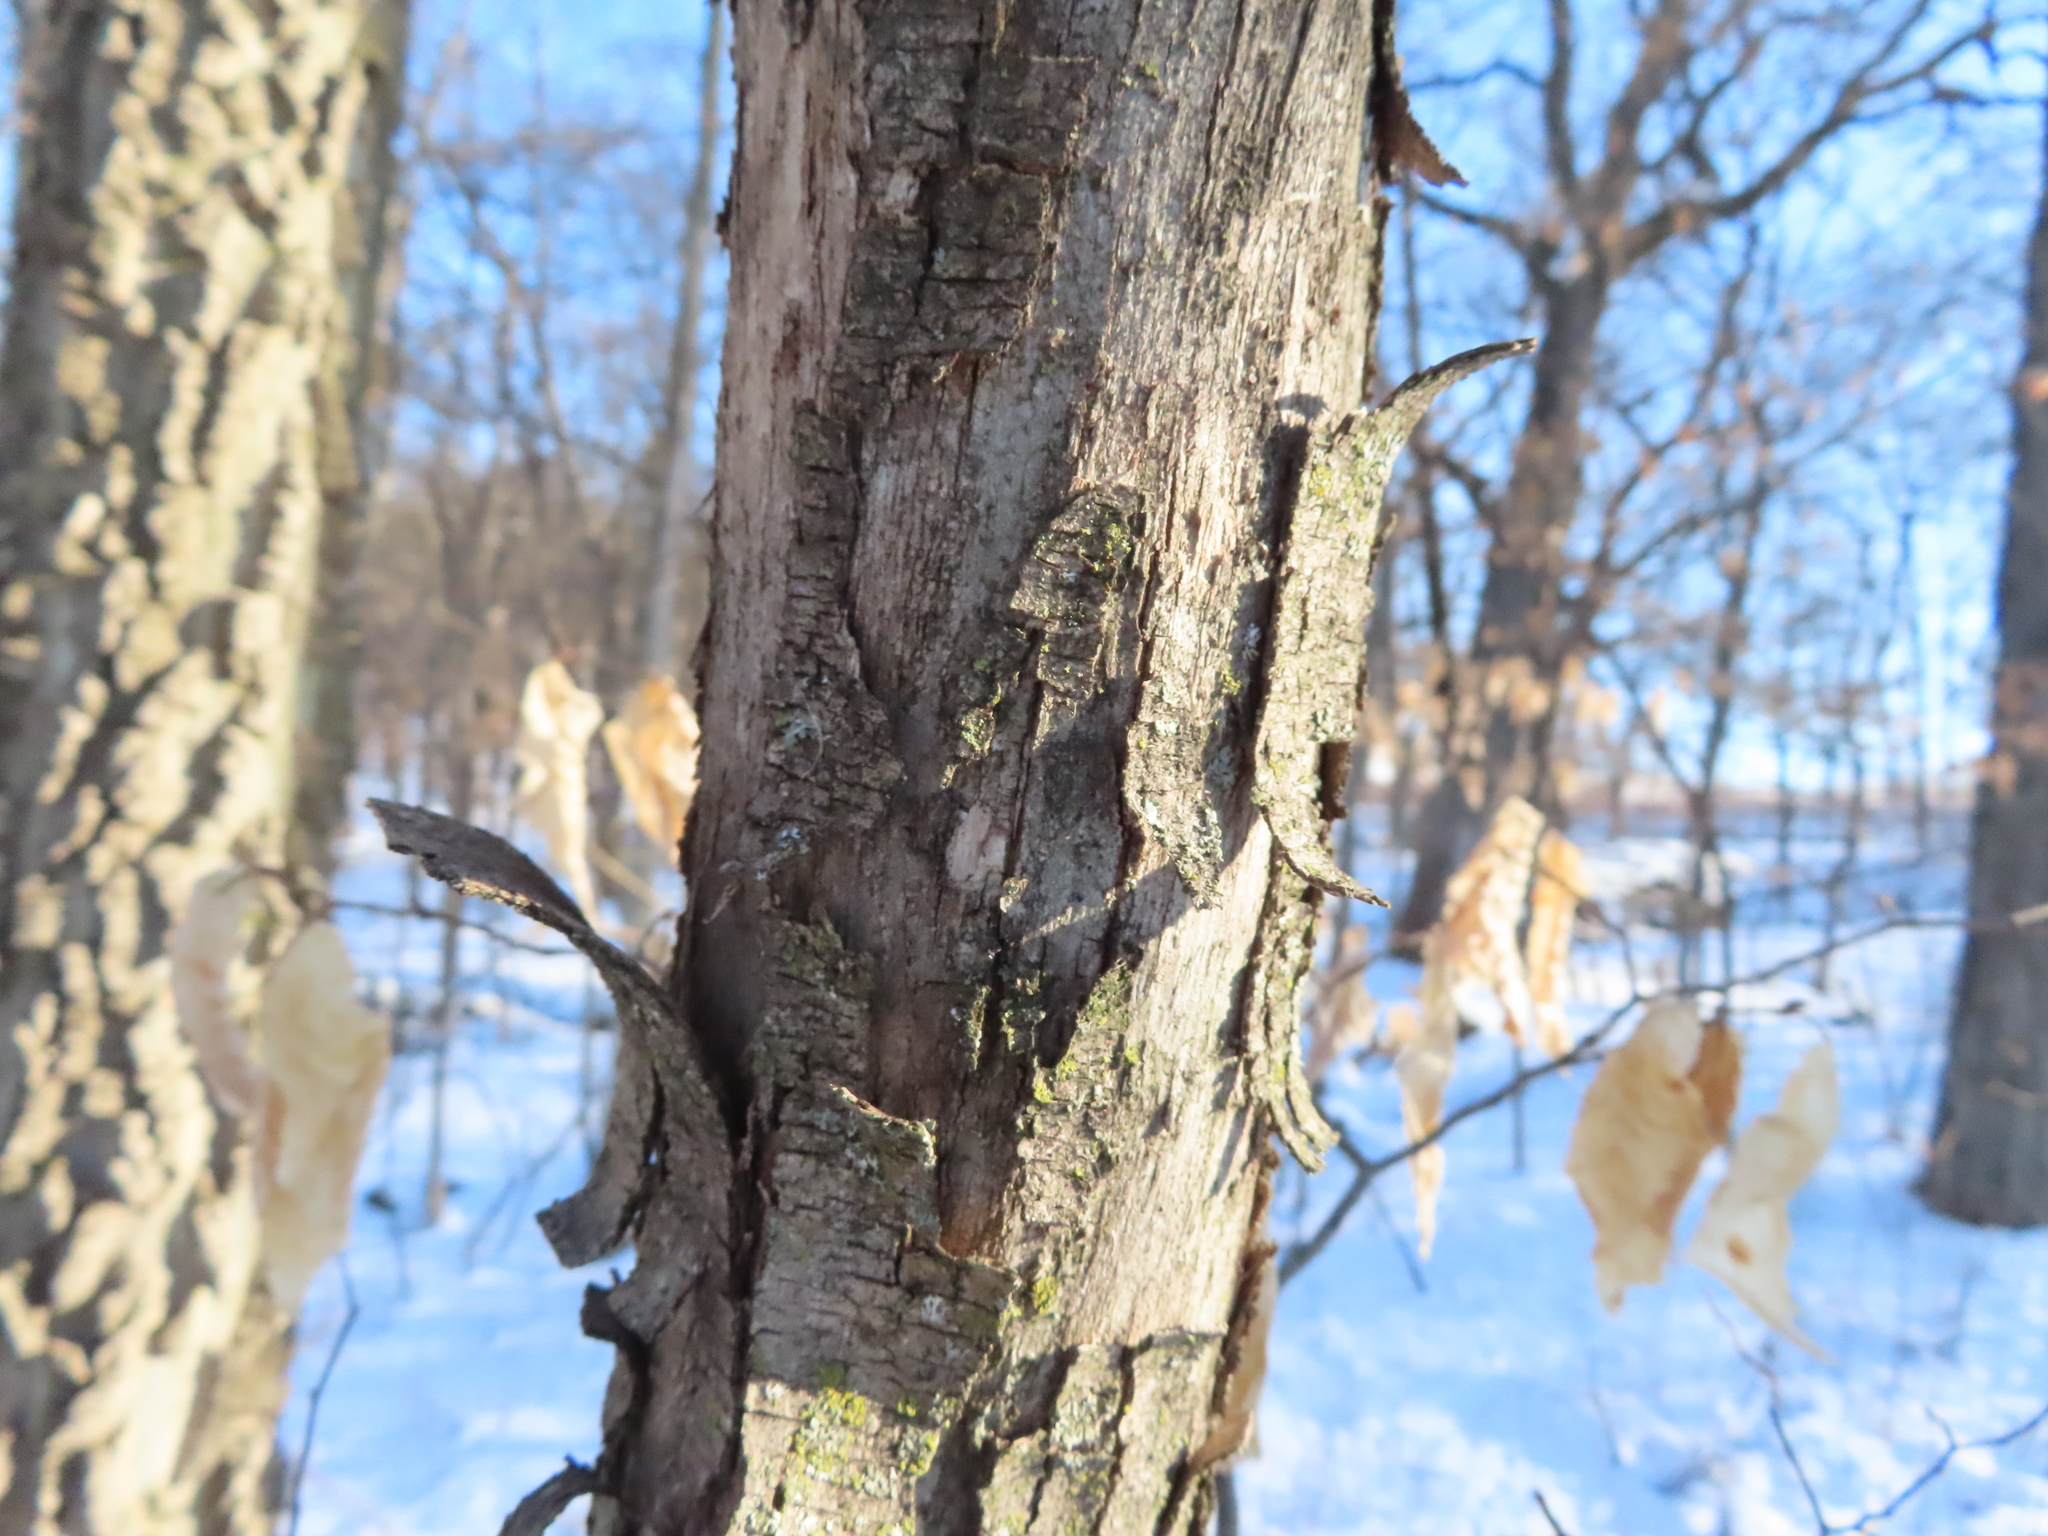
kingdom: Plantae
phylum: Tracheophyta
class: Magnoliopsida
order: Fagales
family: Betulaceae
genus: Ostrya
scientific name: Ostrya virginiana
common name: Ironwood
